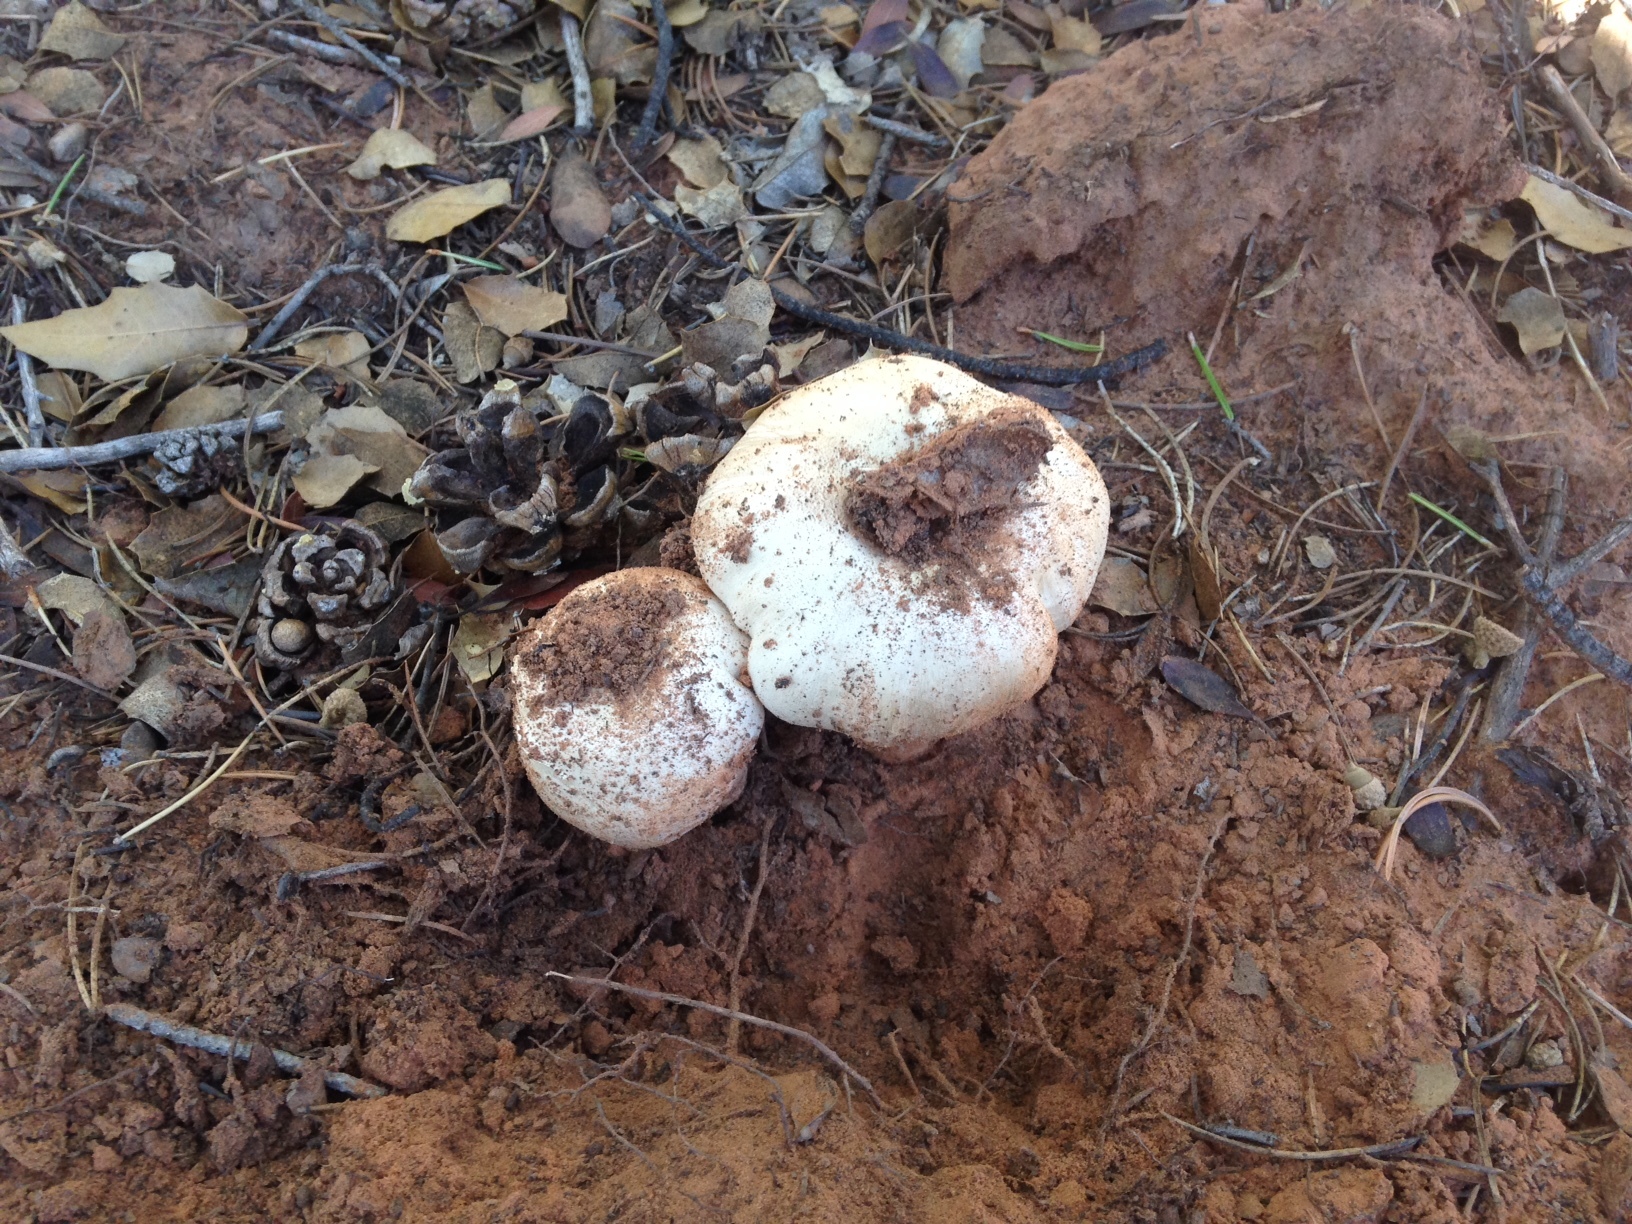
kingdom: Fungi
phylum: Basidiomycota
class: Agaricomycetes
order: Agaricales
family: Agaricaceae
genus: Agaricus
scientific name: Agaricus approximans
